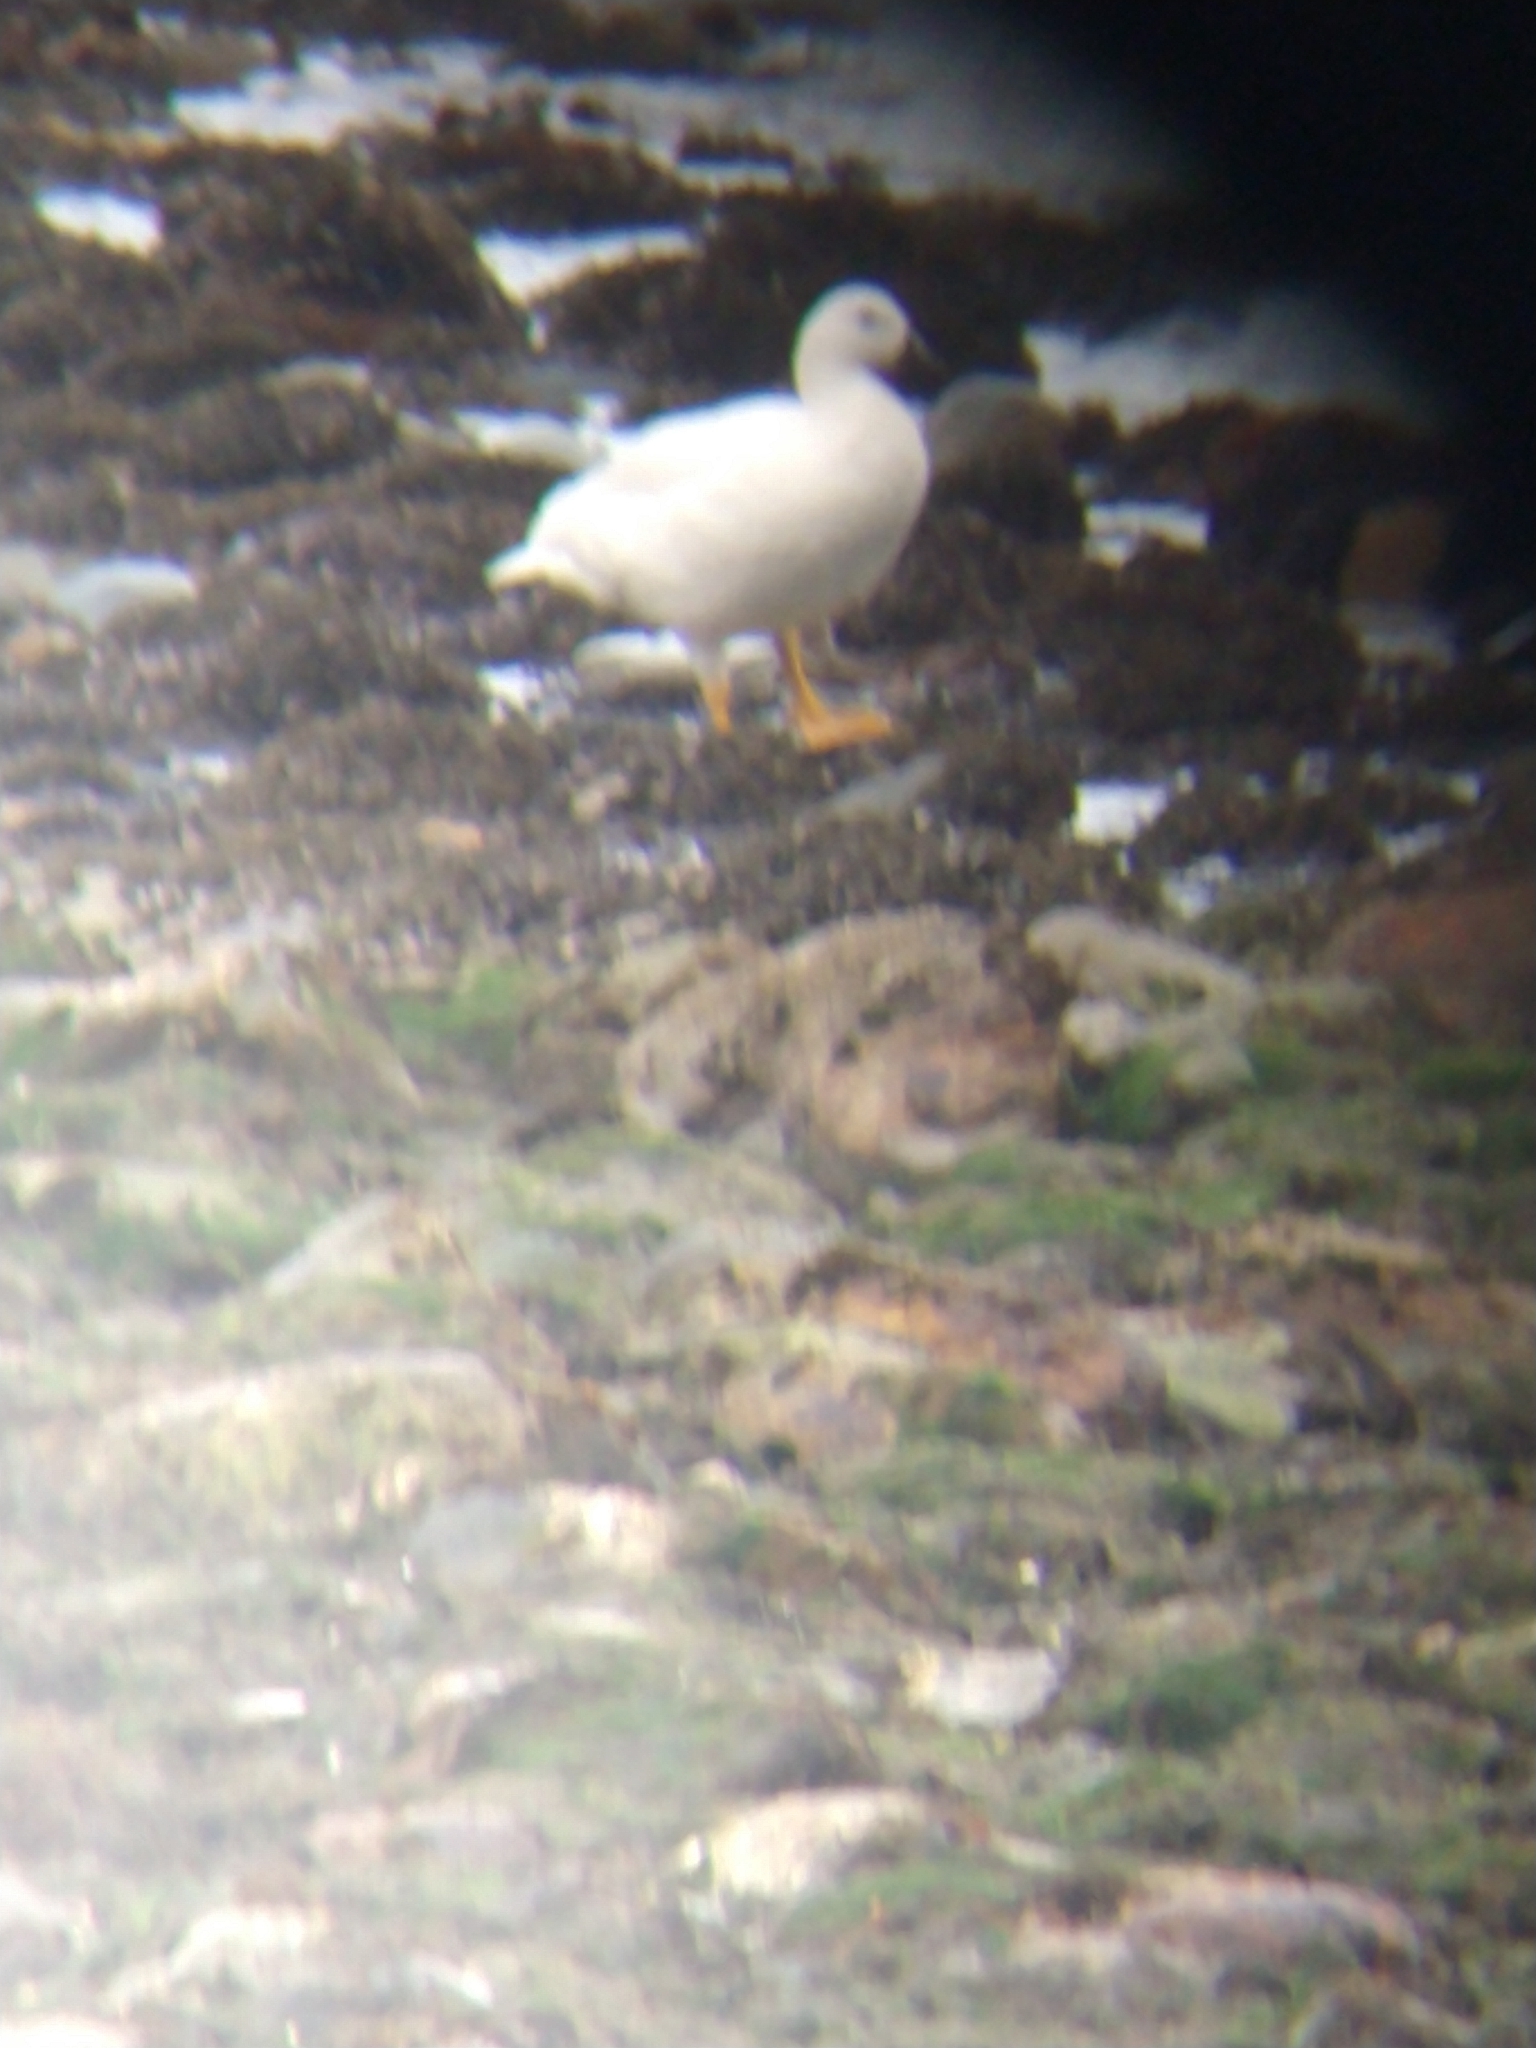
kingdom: Animalia
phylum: Chordata
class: Aves
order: Anseriformes
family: Anatidae
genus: Chloephaga
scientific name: Chloephaga hybrida
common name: Kelp goose
